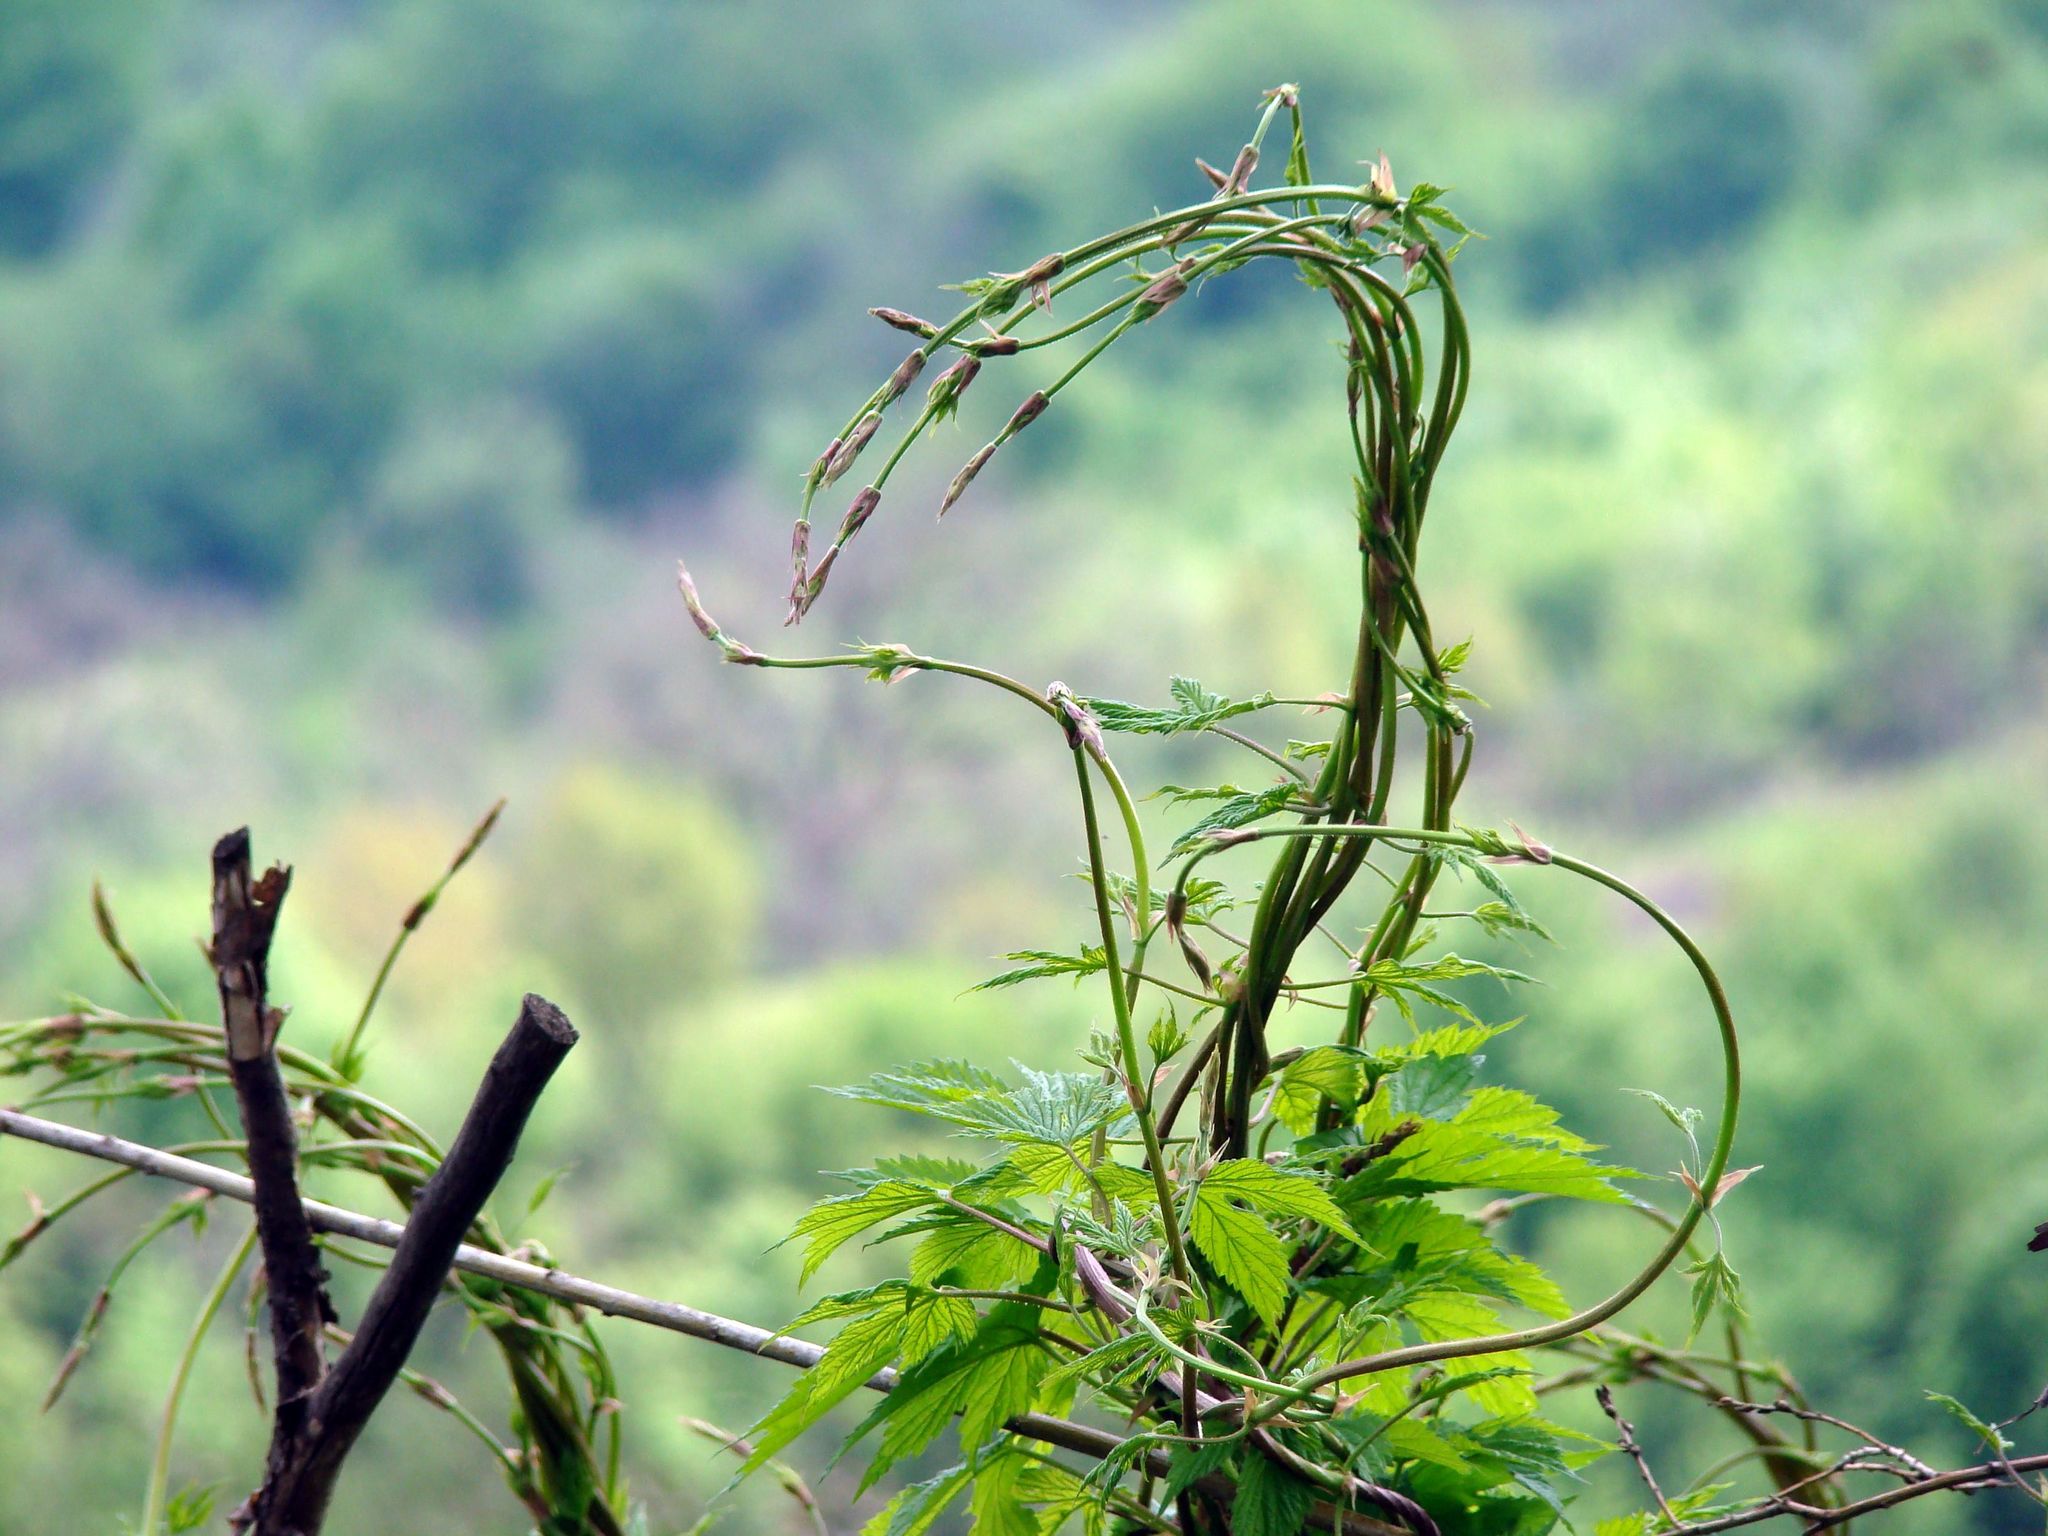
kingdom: Plantae
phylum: Tracheophyta
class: Magnoliopsida
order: Rosales
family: Cannabaceae
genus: Humulus
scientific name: Humulus lupulus
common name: Hop
